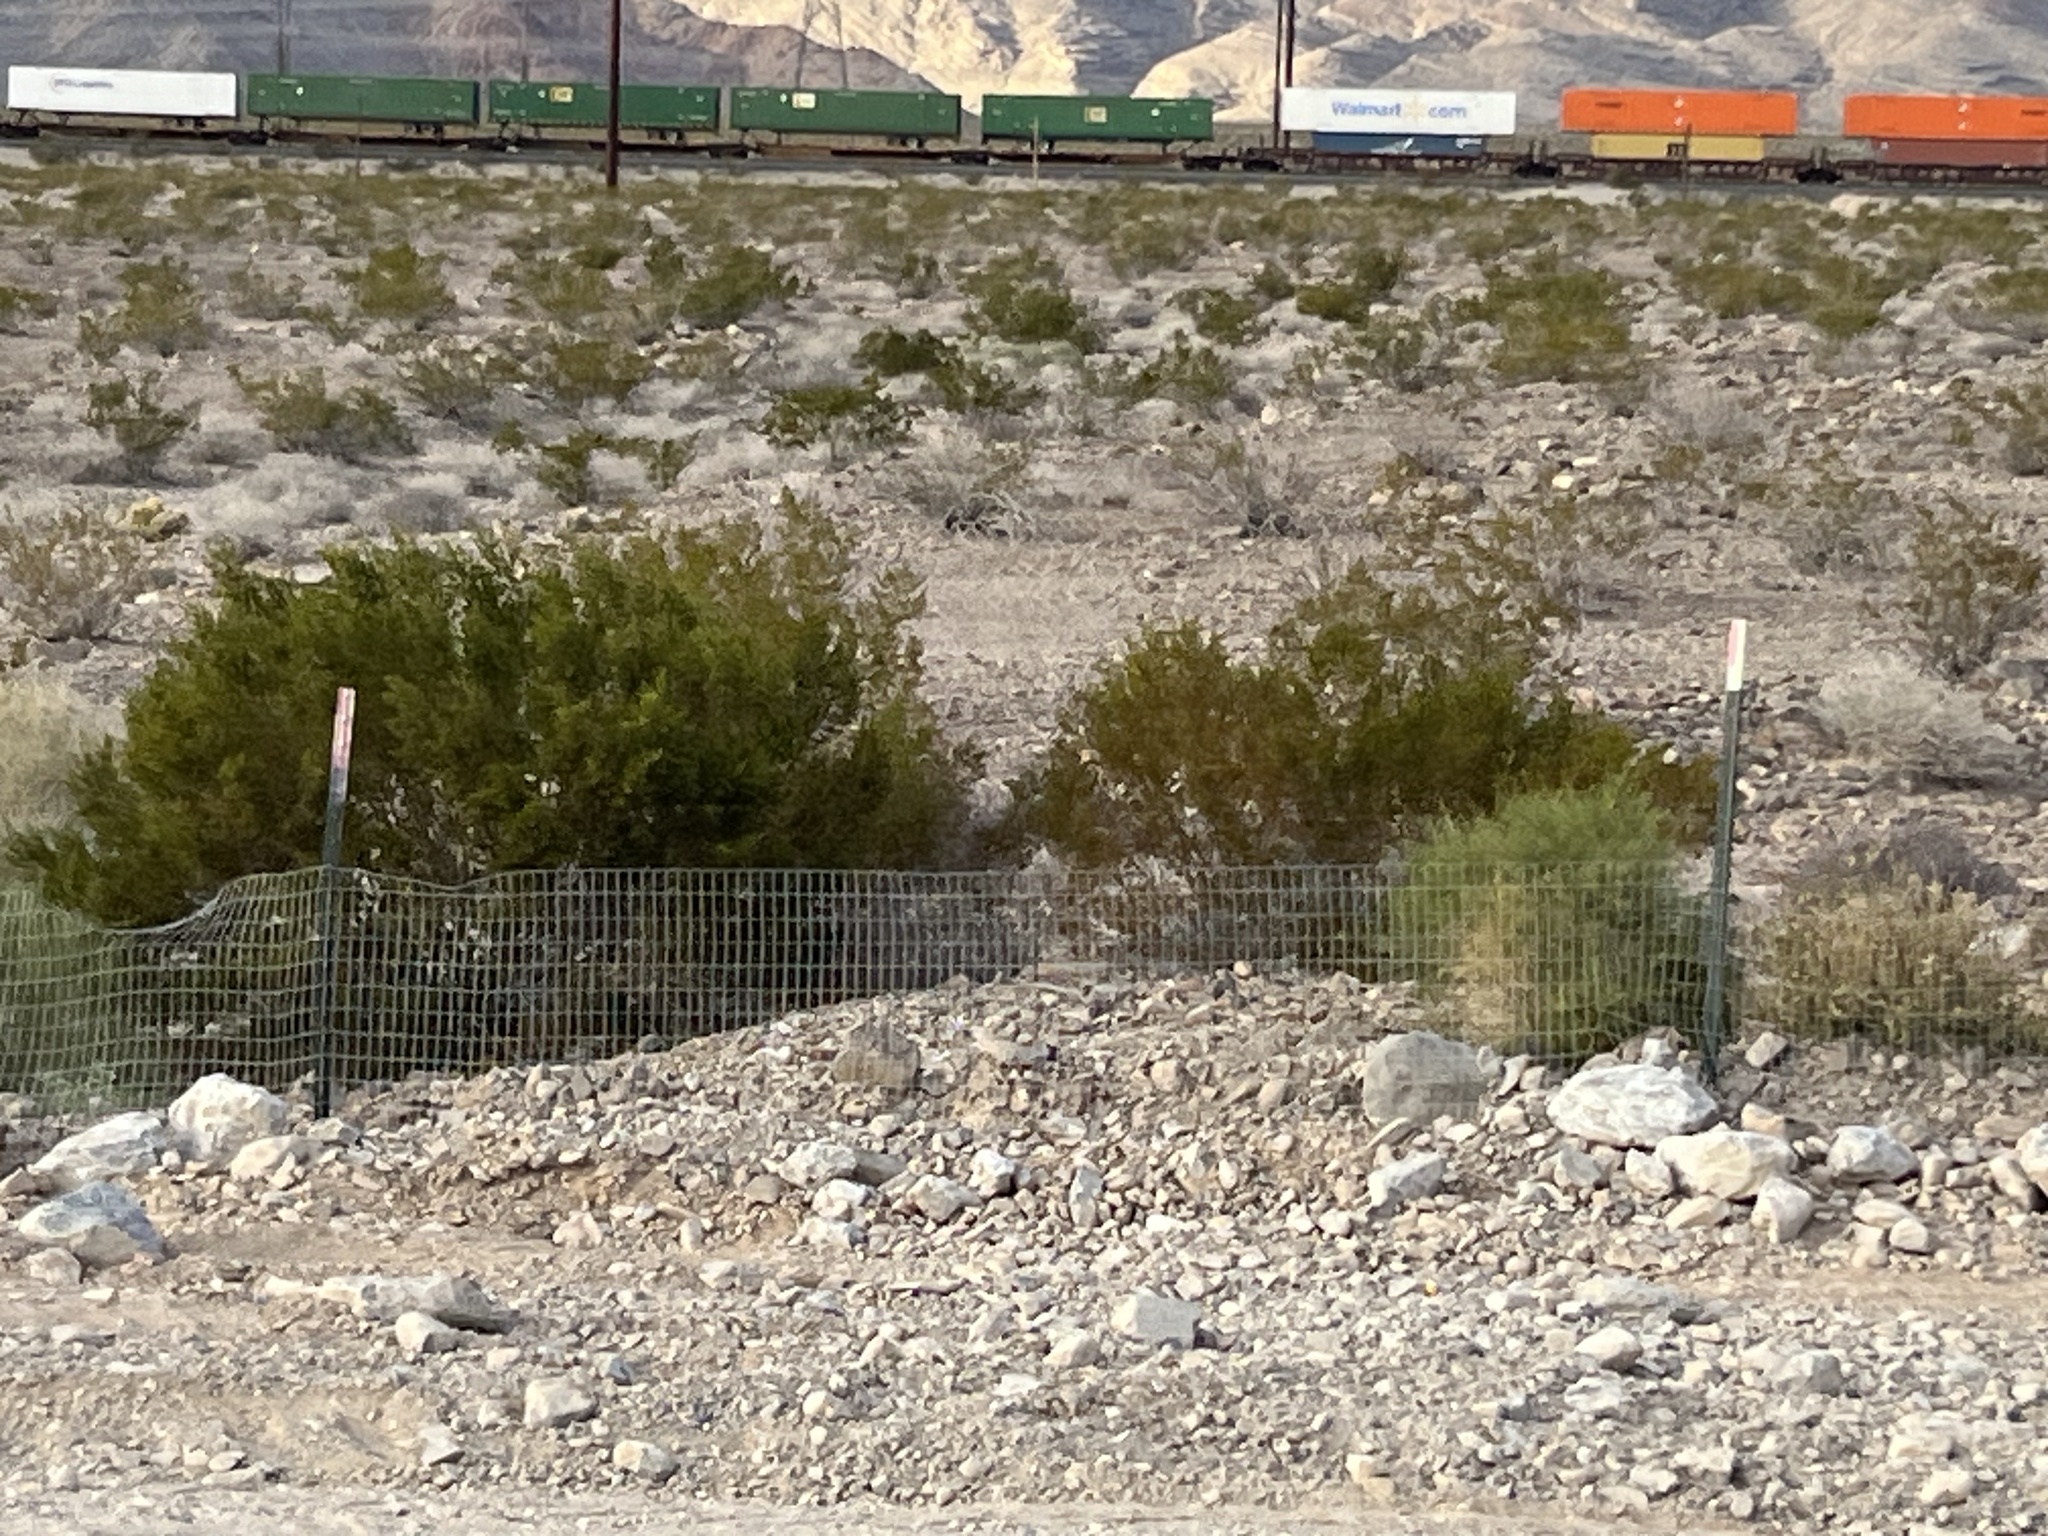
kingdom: Plantae
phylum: Tracheophyta
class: Magnoliopsida
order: Zygophyllales
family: Zygophyllaceae
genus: Larrea
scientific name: Larrea tridentata
